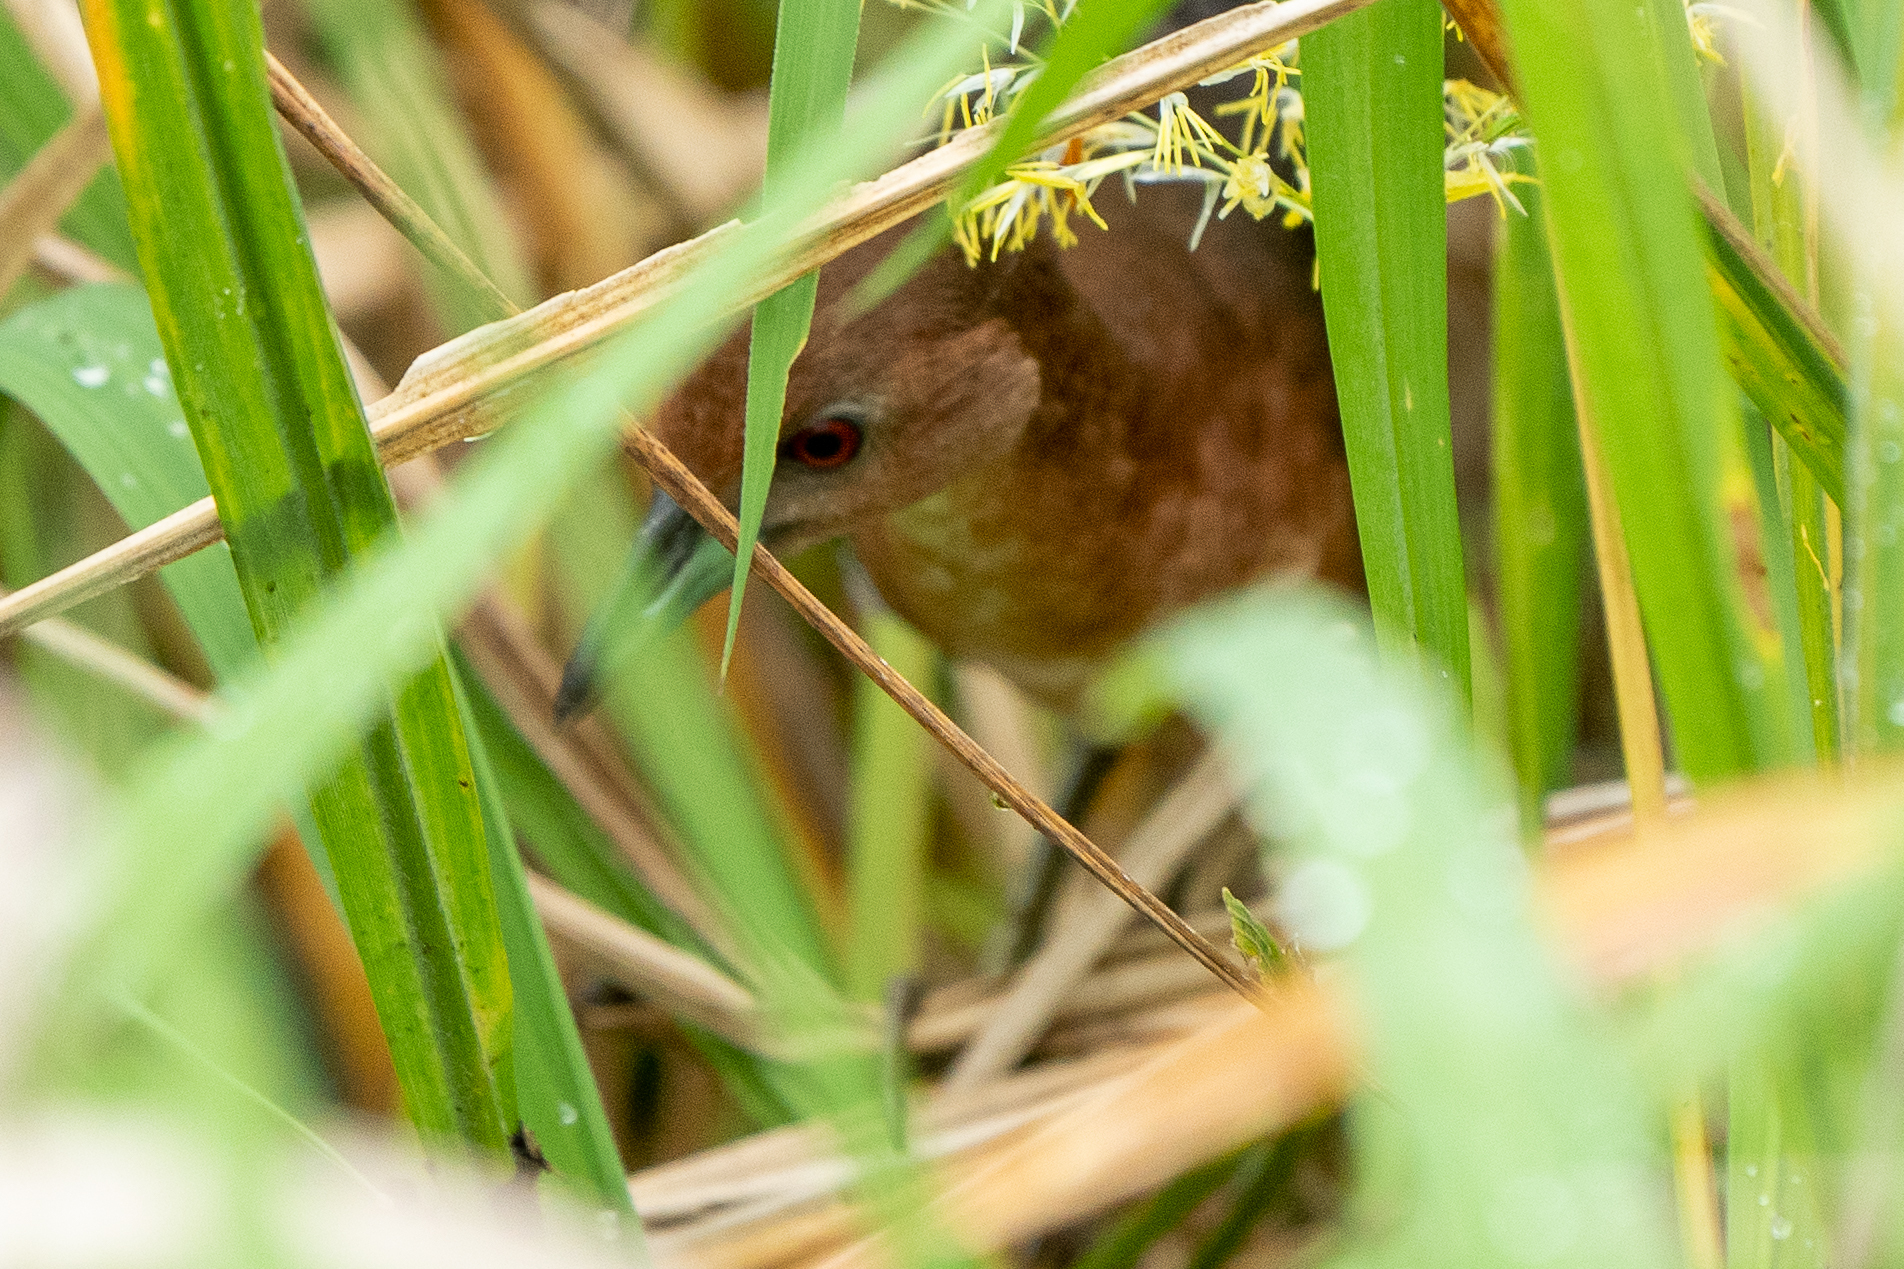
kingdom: Animalia
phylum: Chordata
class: Aves
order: Gruiformes
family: Rallidae
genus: Laterallus
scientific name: Laterallus albigularis
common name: White-throated crake
